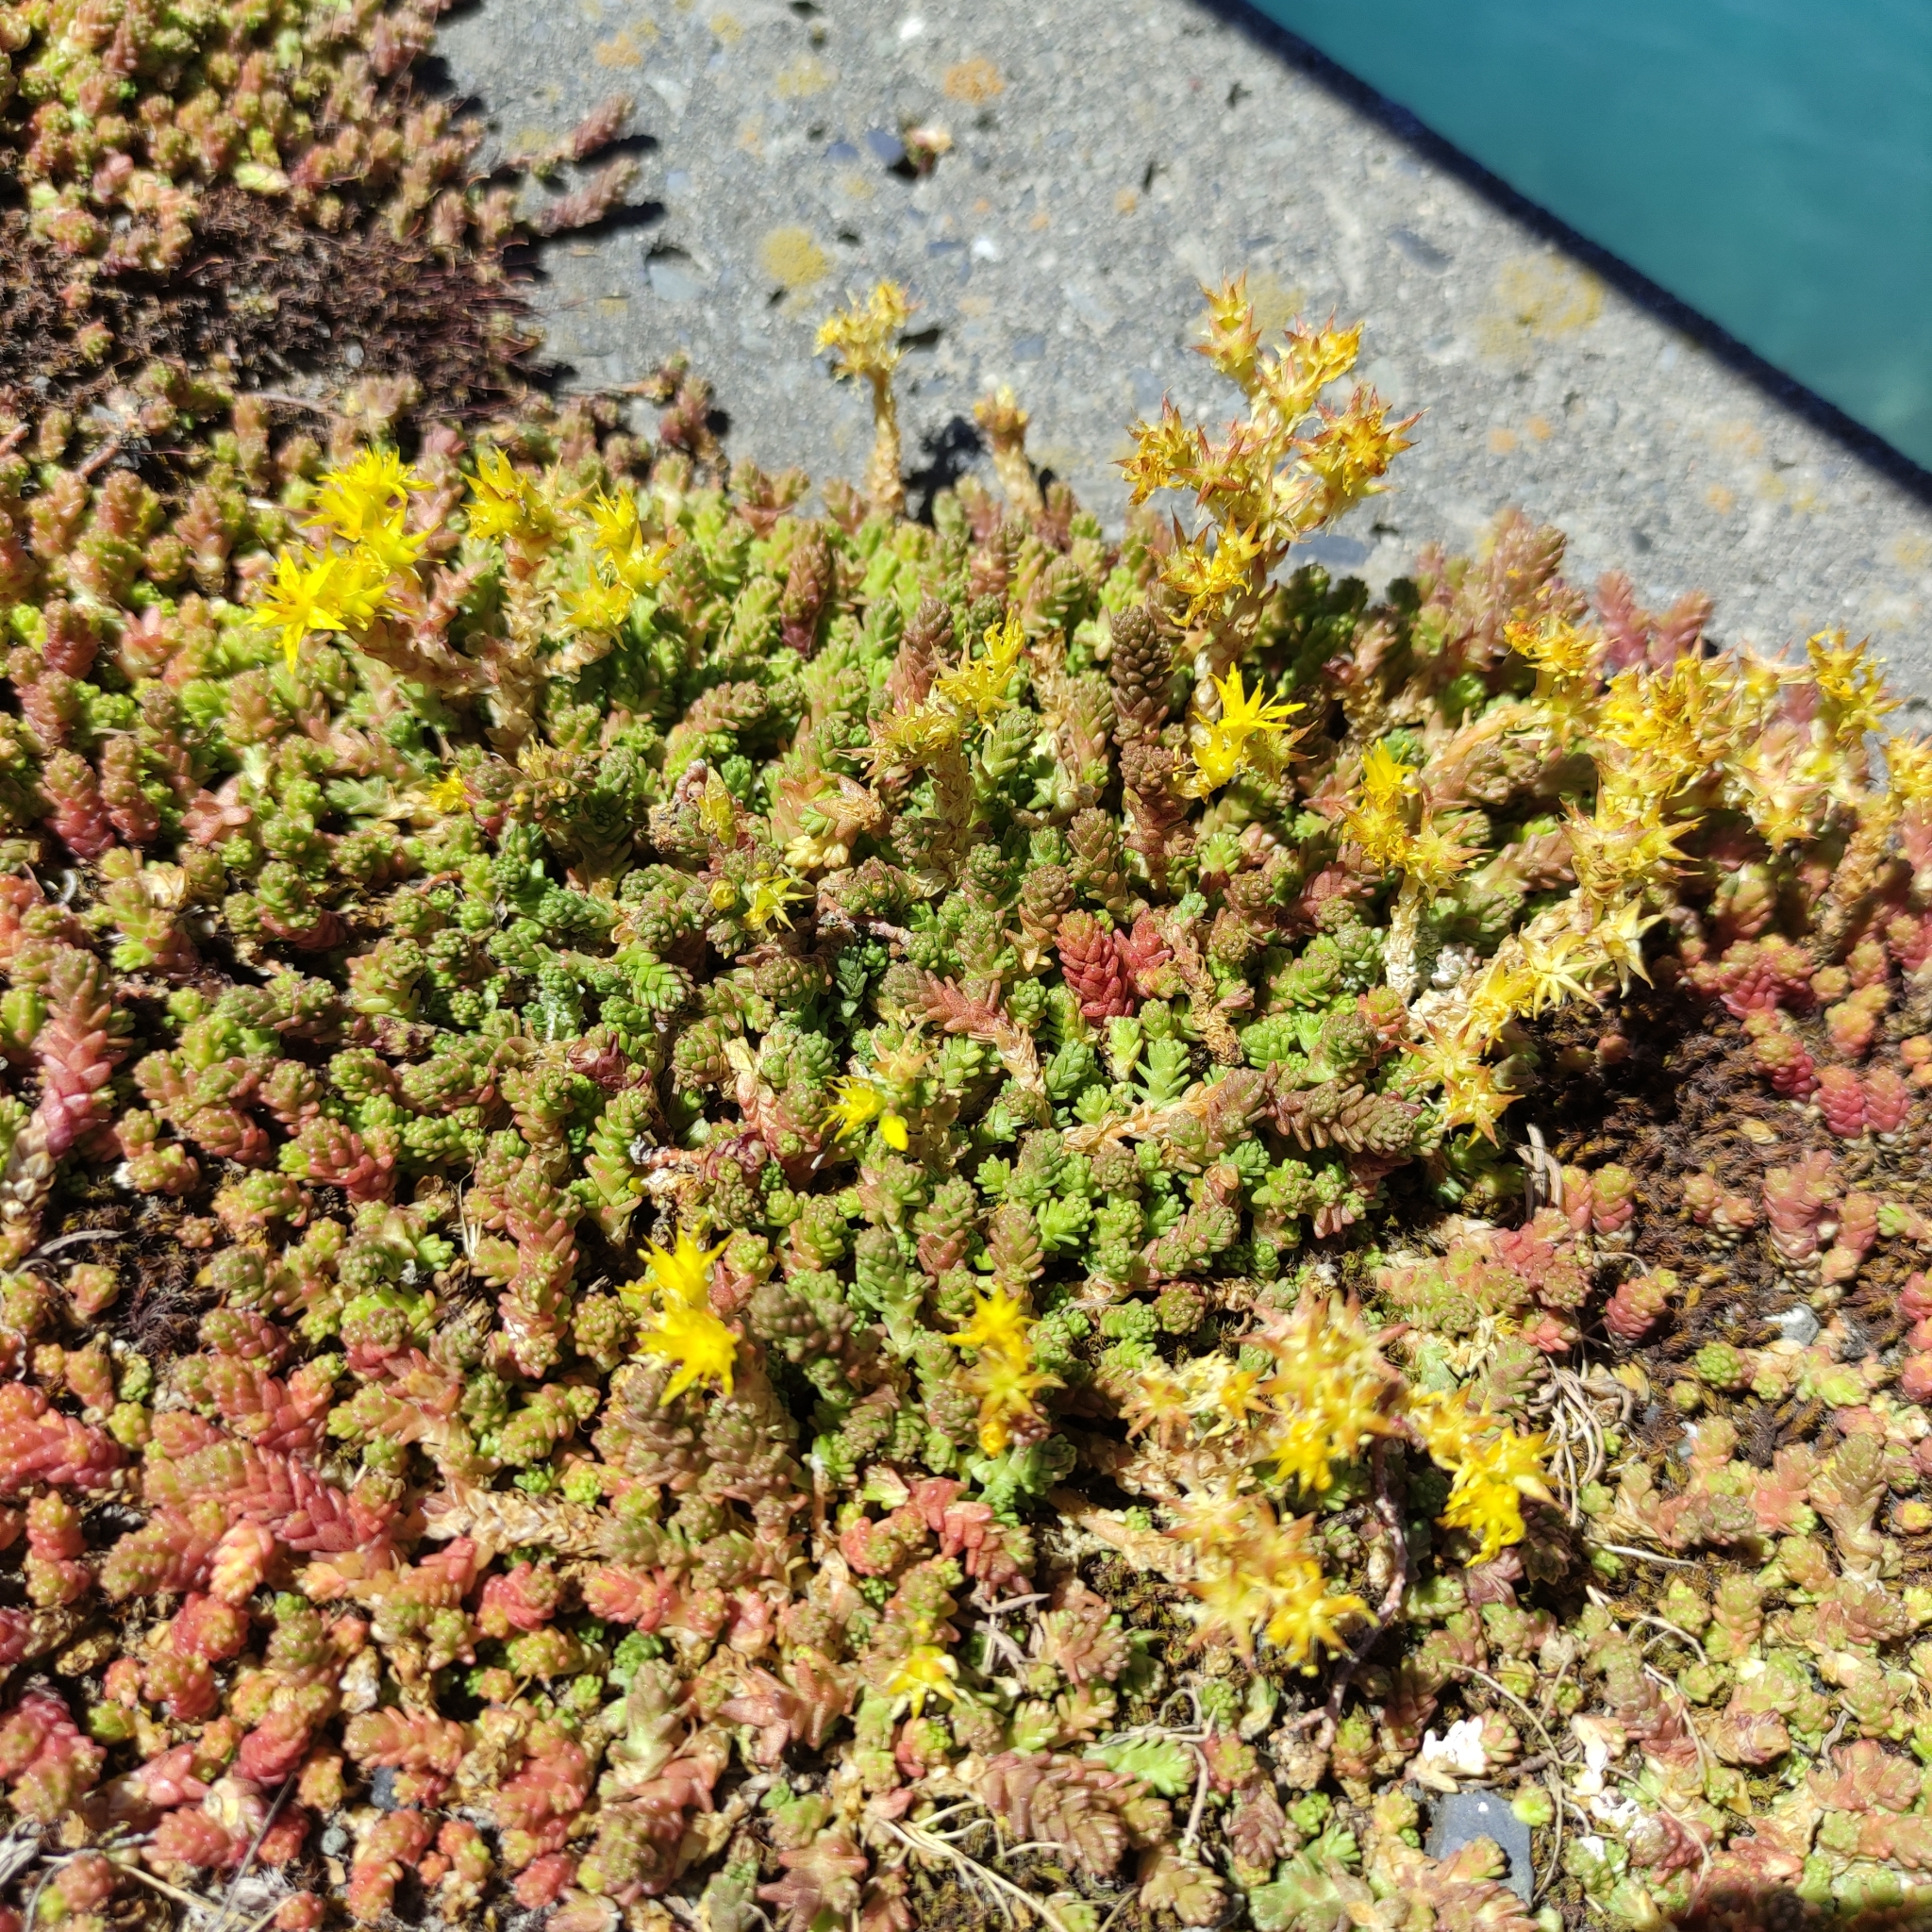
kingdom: Plantae
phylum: Tracheophyta
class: Magnoliopsida
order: Saxifragales
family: Crassulaceae
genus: Sedum
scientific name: Sedum acre
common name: Biting stonecrop
